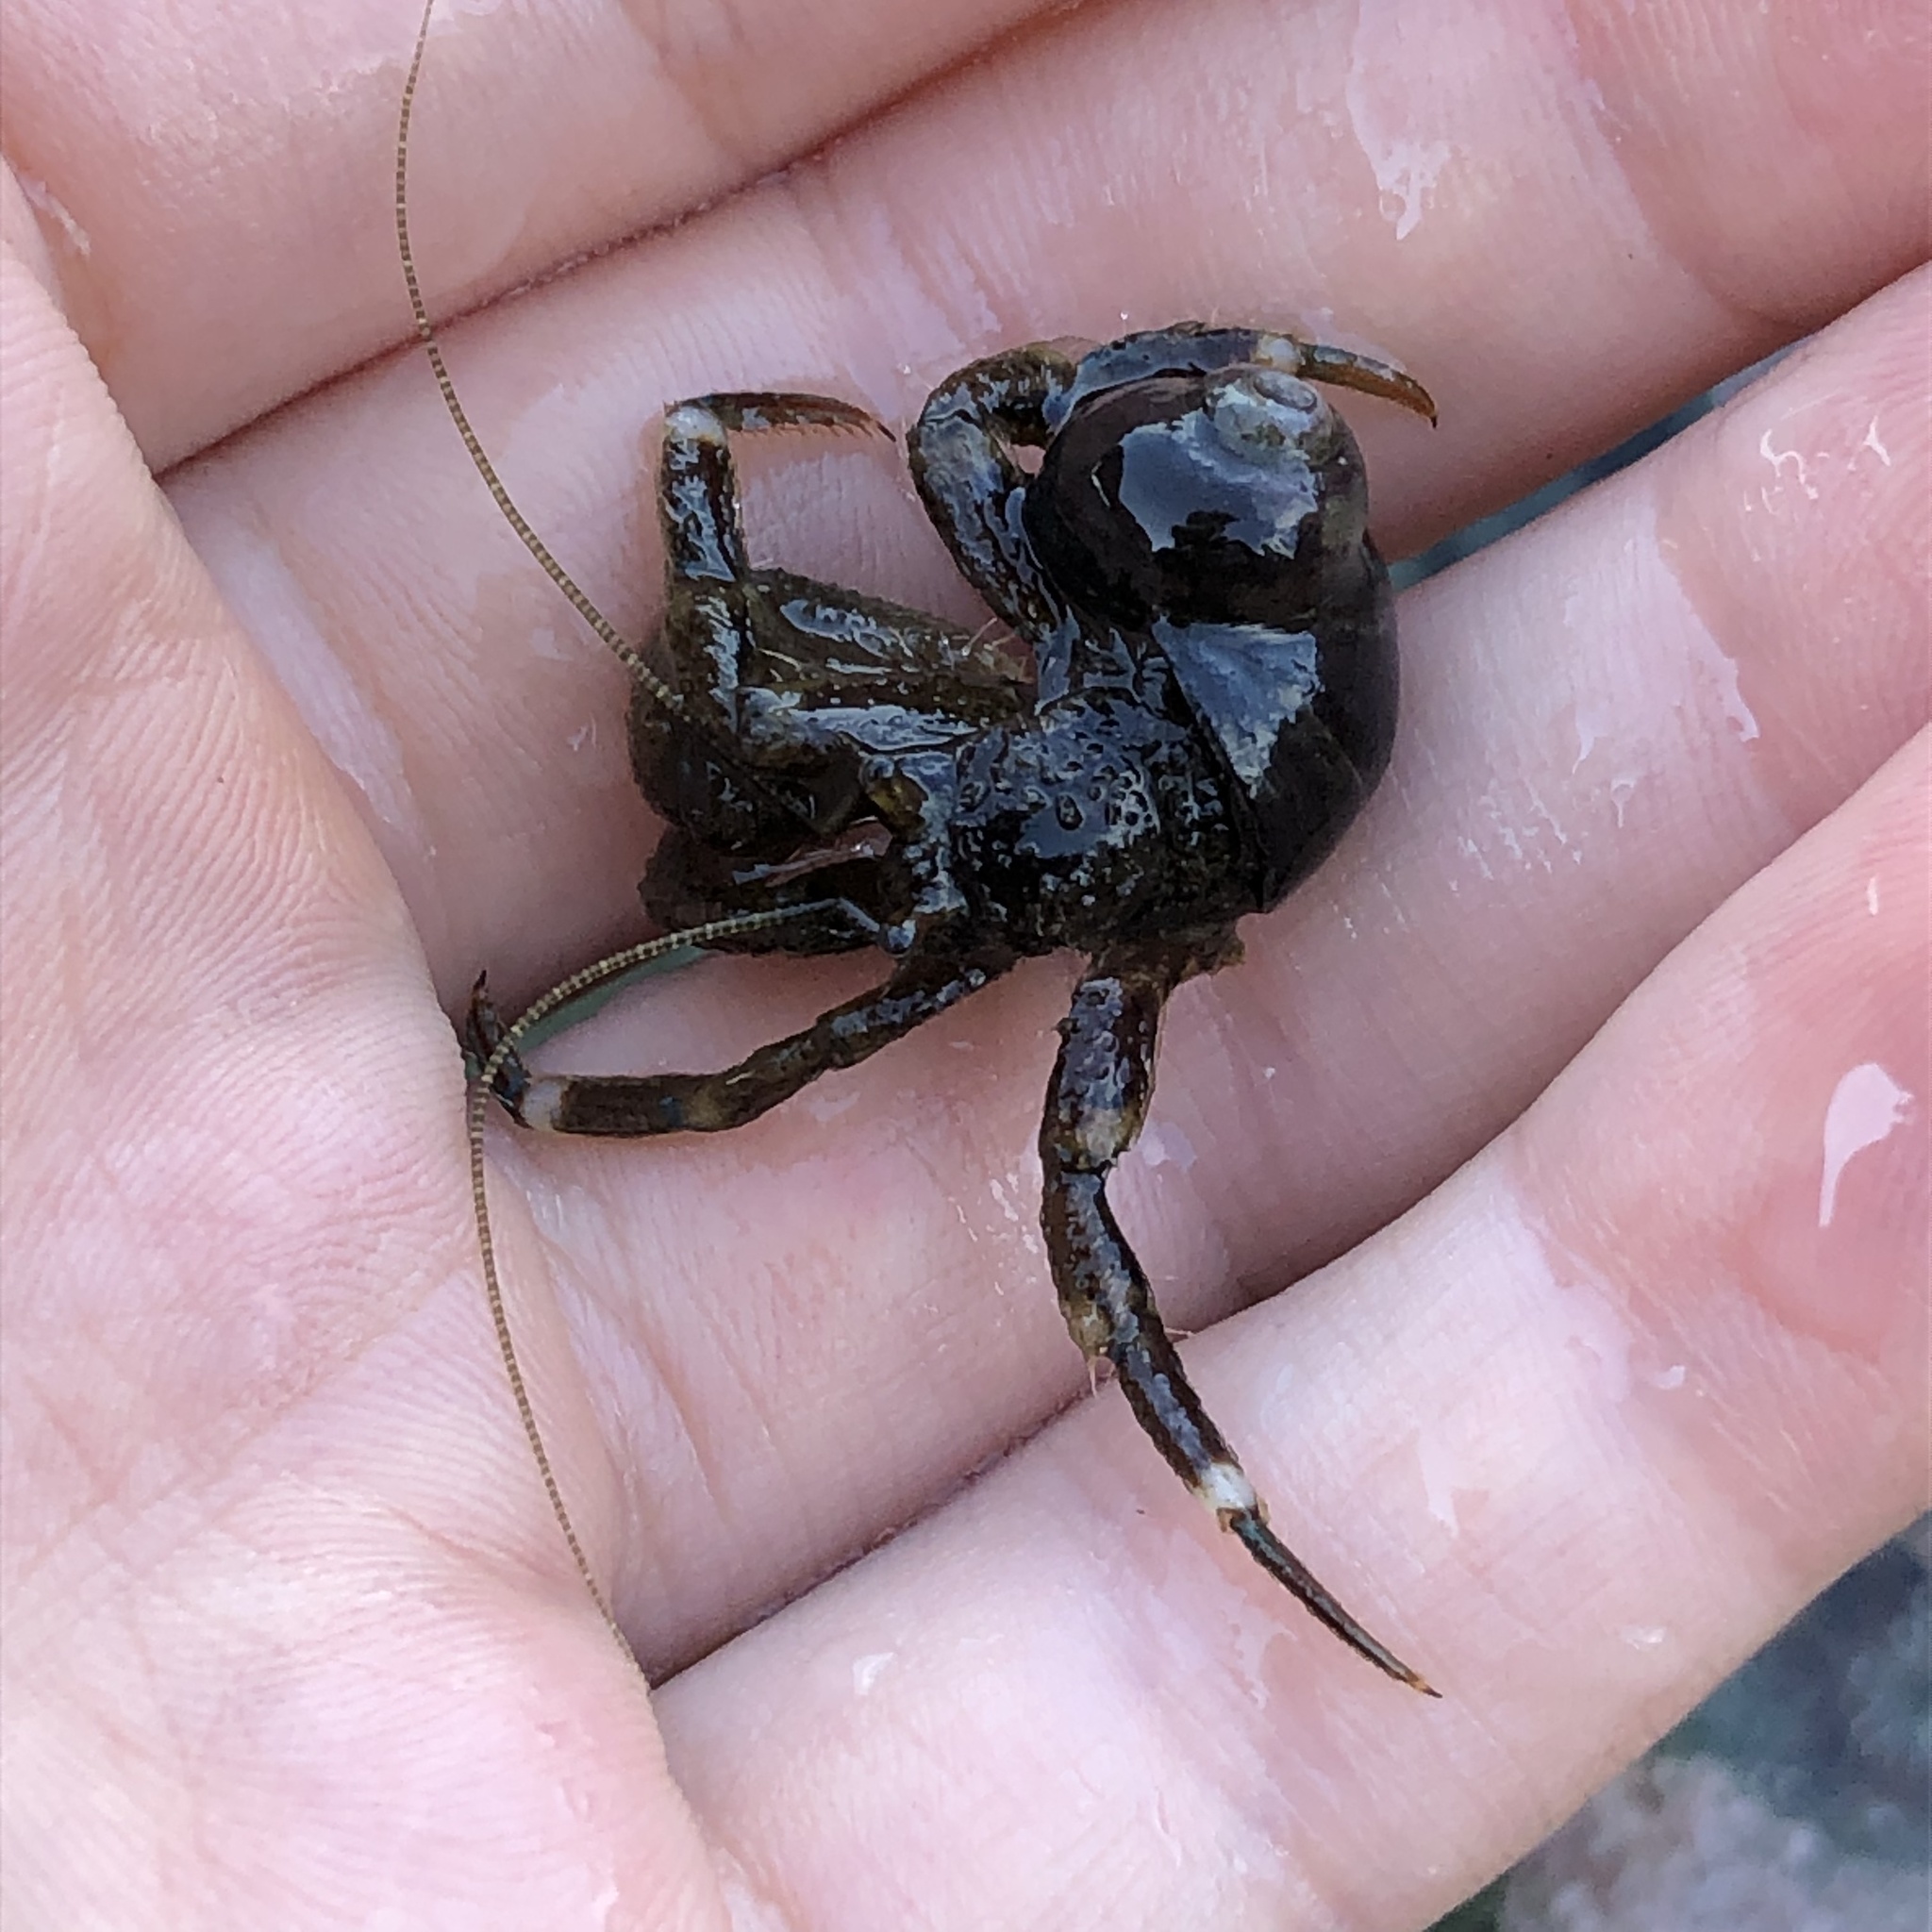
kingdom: Animalia
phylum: Arthropoda
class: Malacostraca
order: Decapoda
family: Paguridae
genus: Pagurus
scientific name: Pagurus hirsutiusculus
